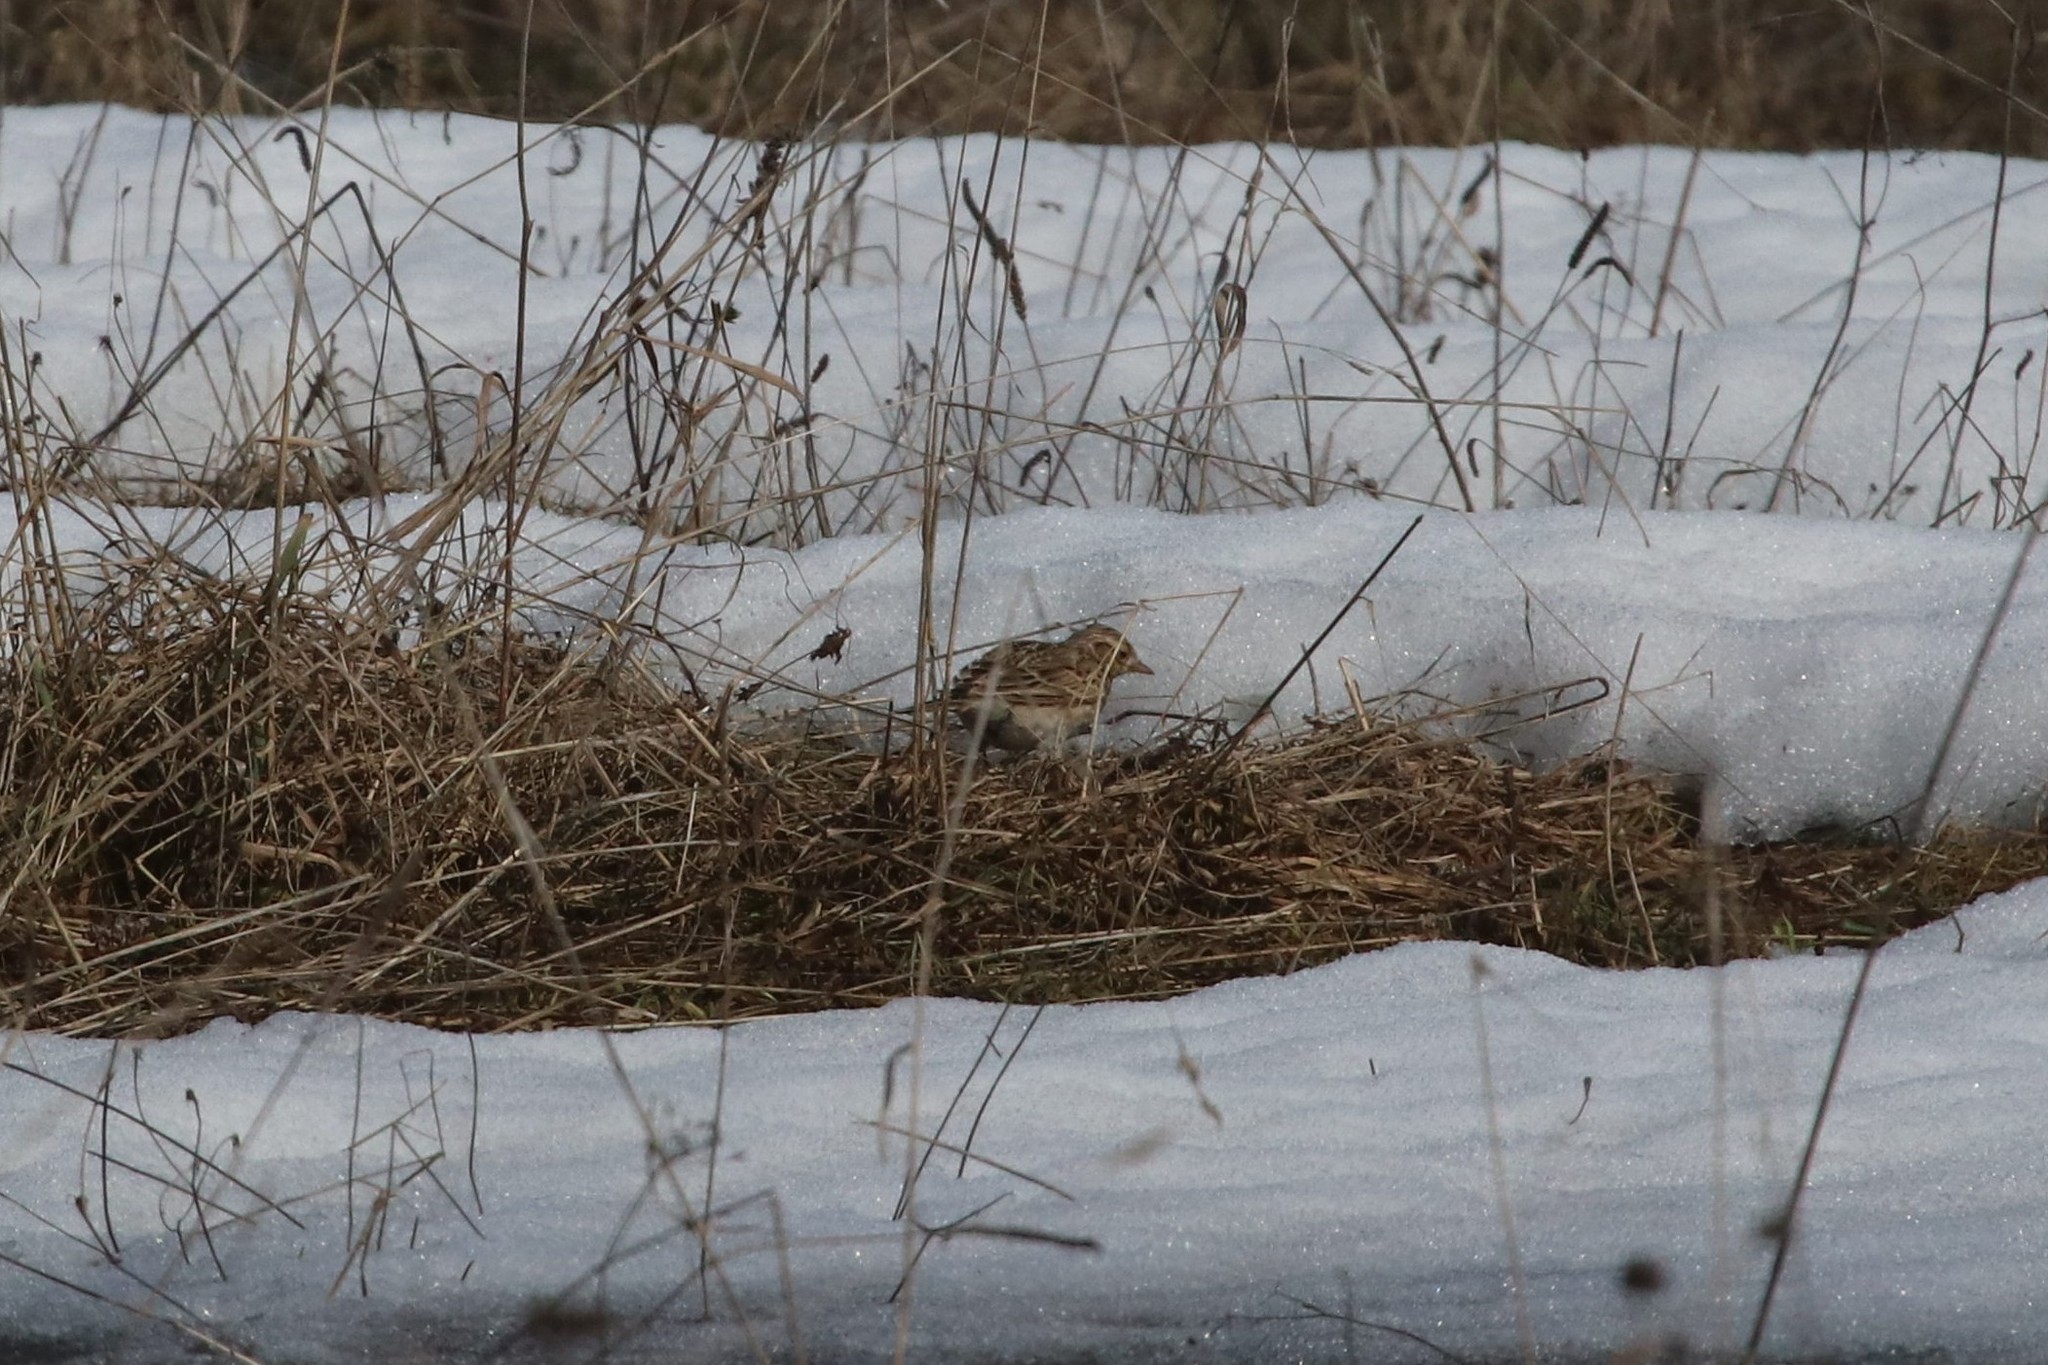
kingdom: Animalia
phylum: Chordata
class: Aves
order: Passeriformes
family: Alaudidae
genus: Alauda
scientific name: Alauda arvensis
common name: Eurasian skylark
